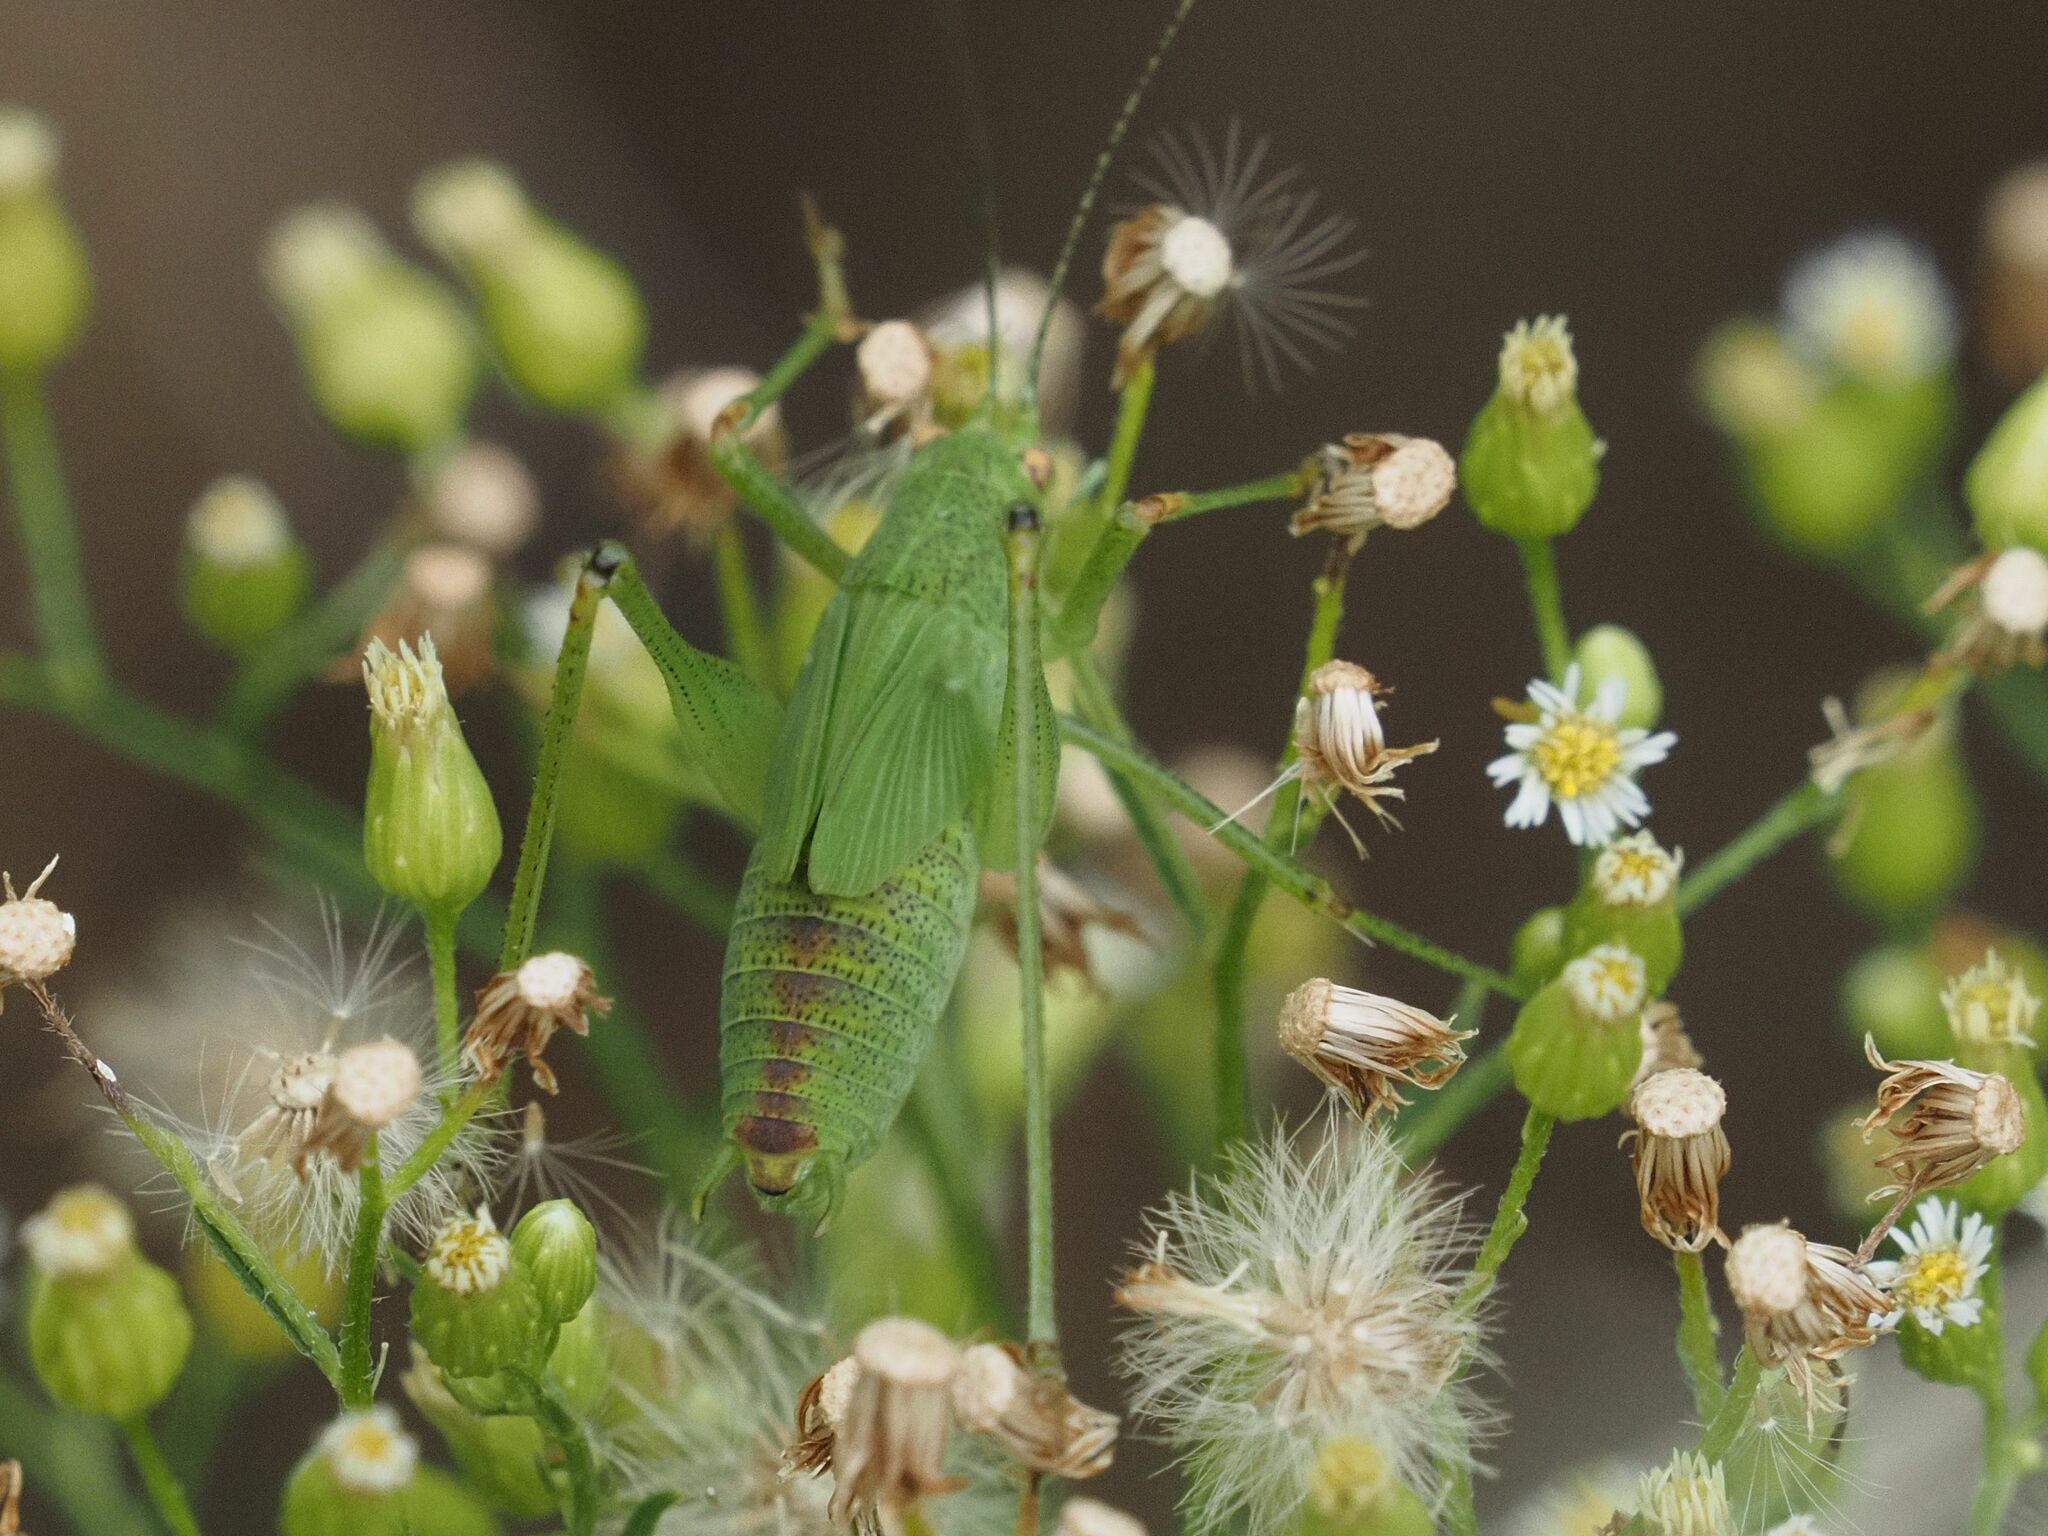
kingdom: Animalia
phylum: Arthropoda
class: Insecta
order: Orthoptera
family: Tettigoniidae
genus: Phaneroptera
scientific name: Phaneroptera nana
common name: Southern sickle bush-cricket
